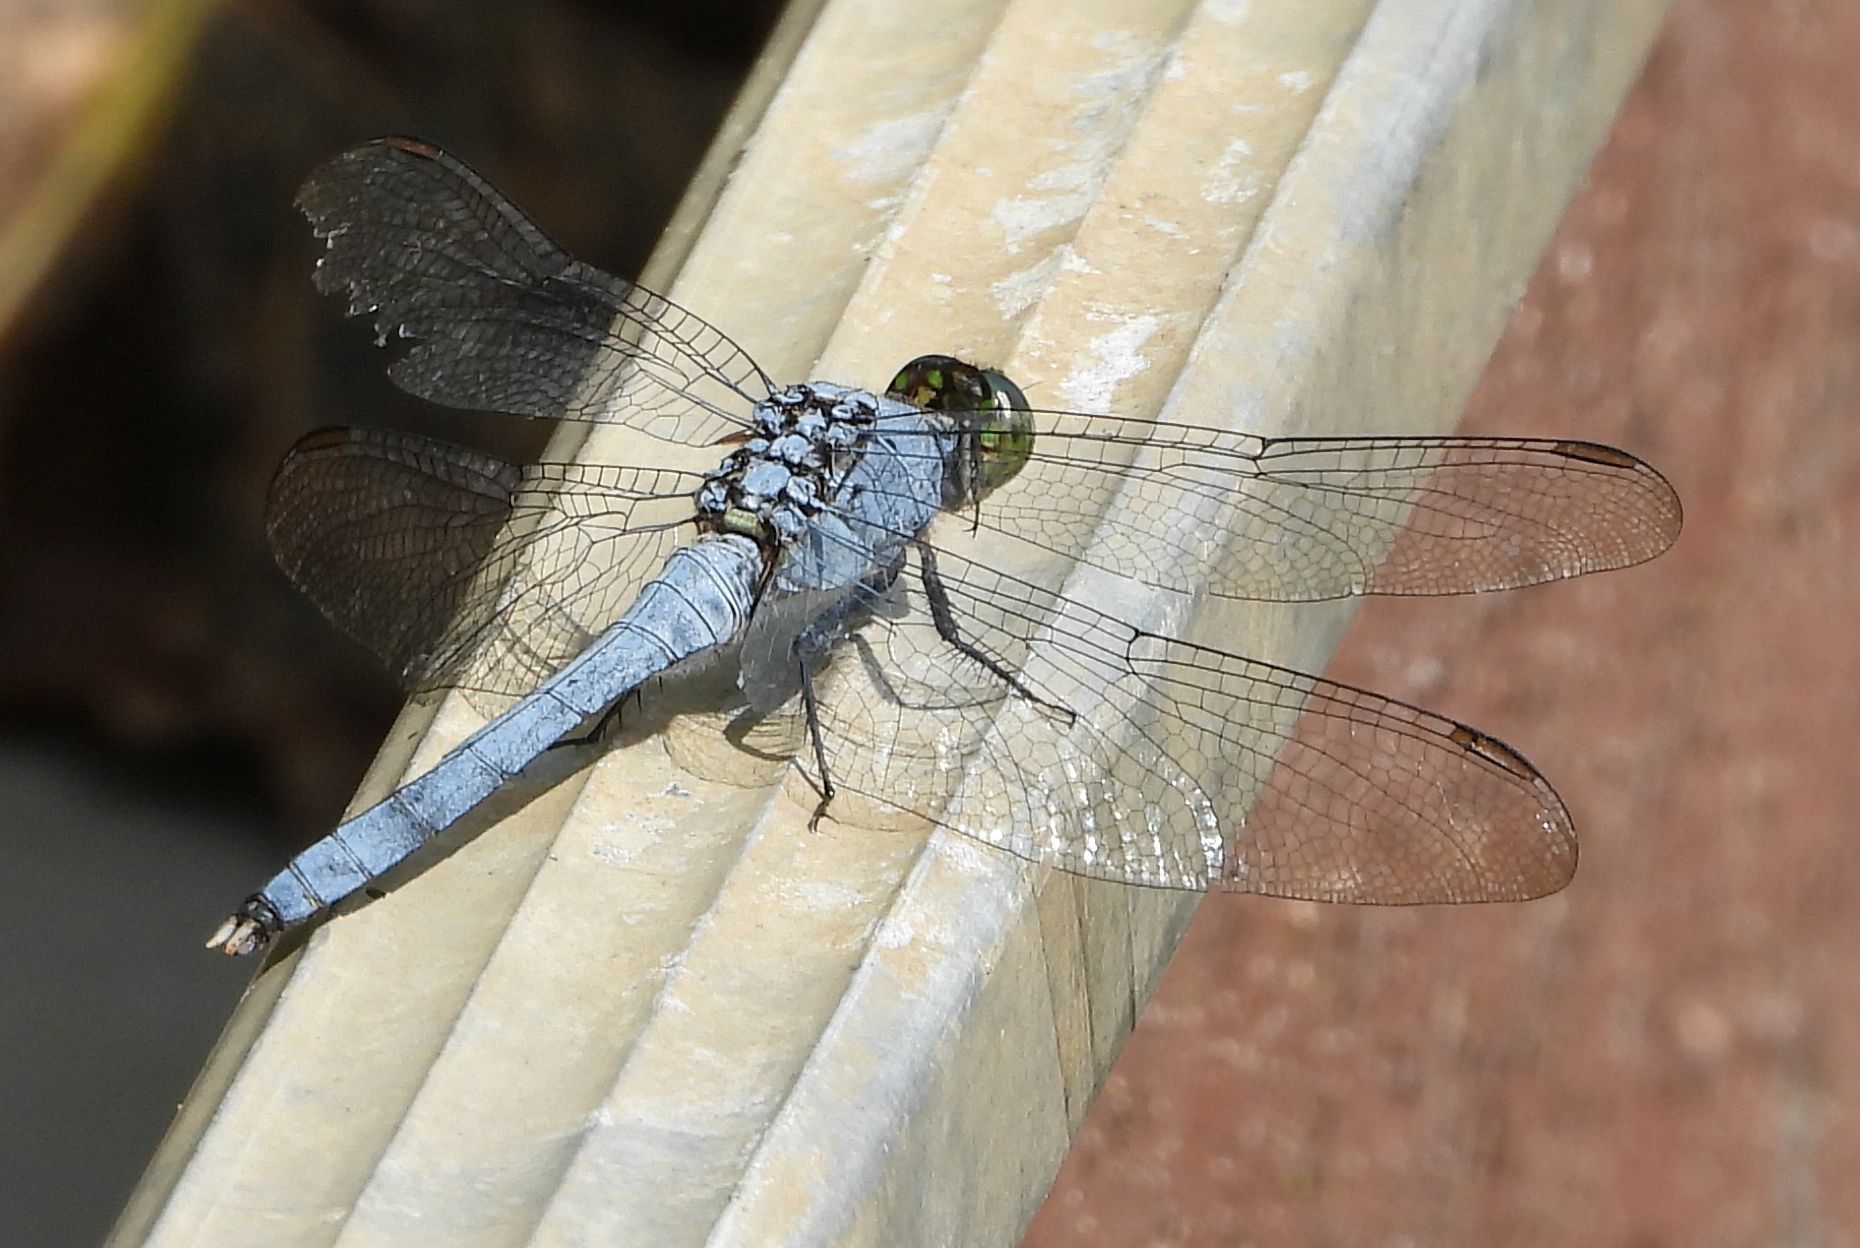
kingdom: Animalia
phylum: Arthropoda
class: Insecta
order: Odonata
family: Libellulidae
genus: Erythemis
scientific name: Erythemis simplicicollis
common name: Eastern pondhawk
